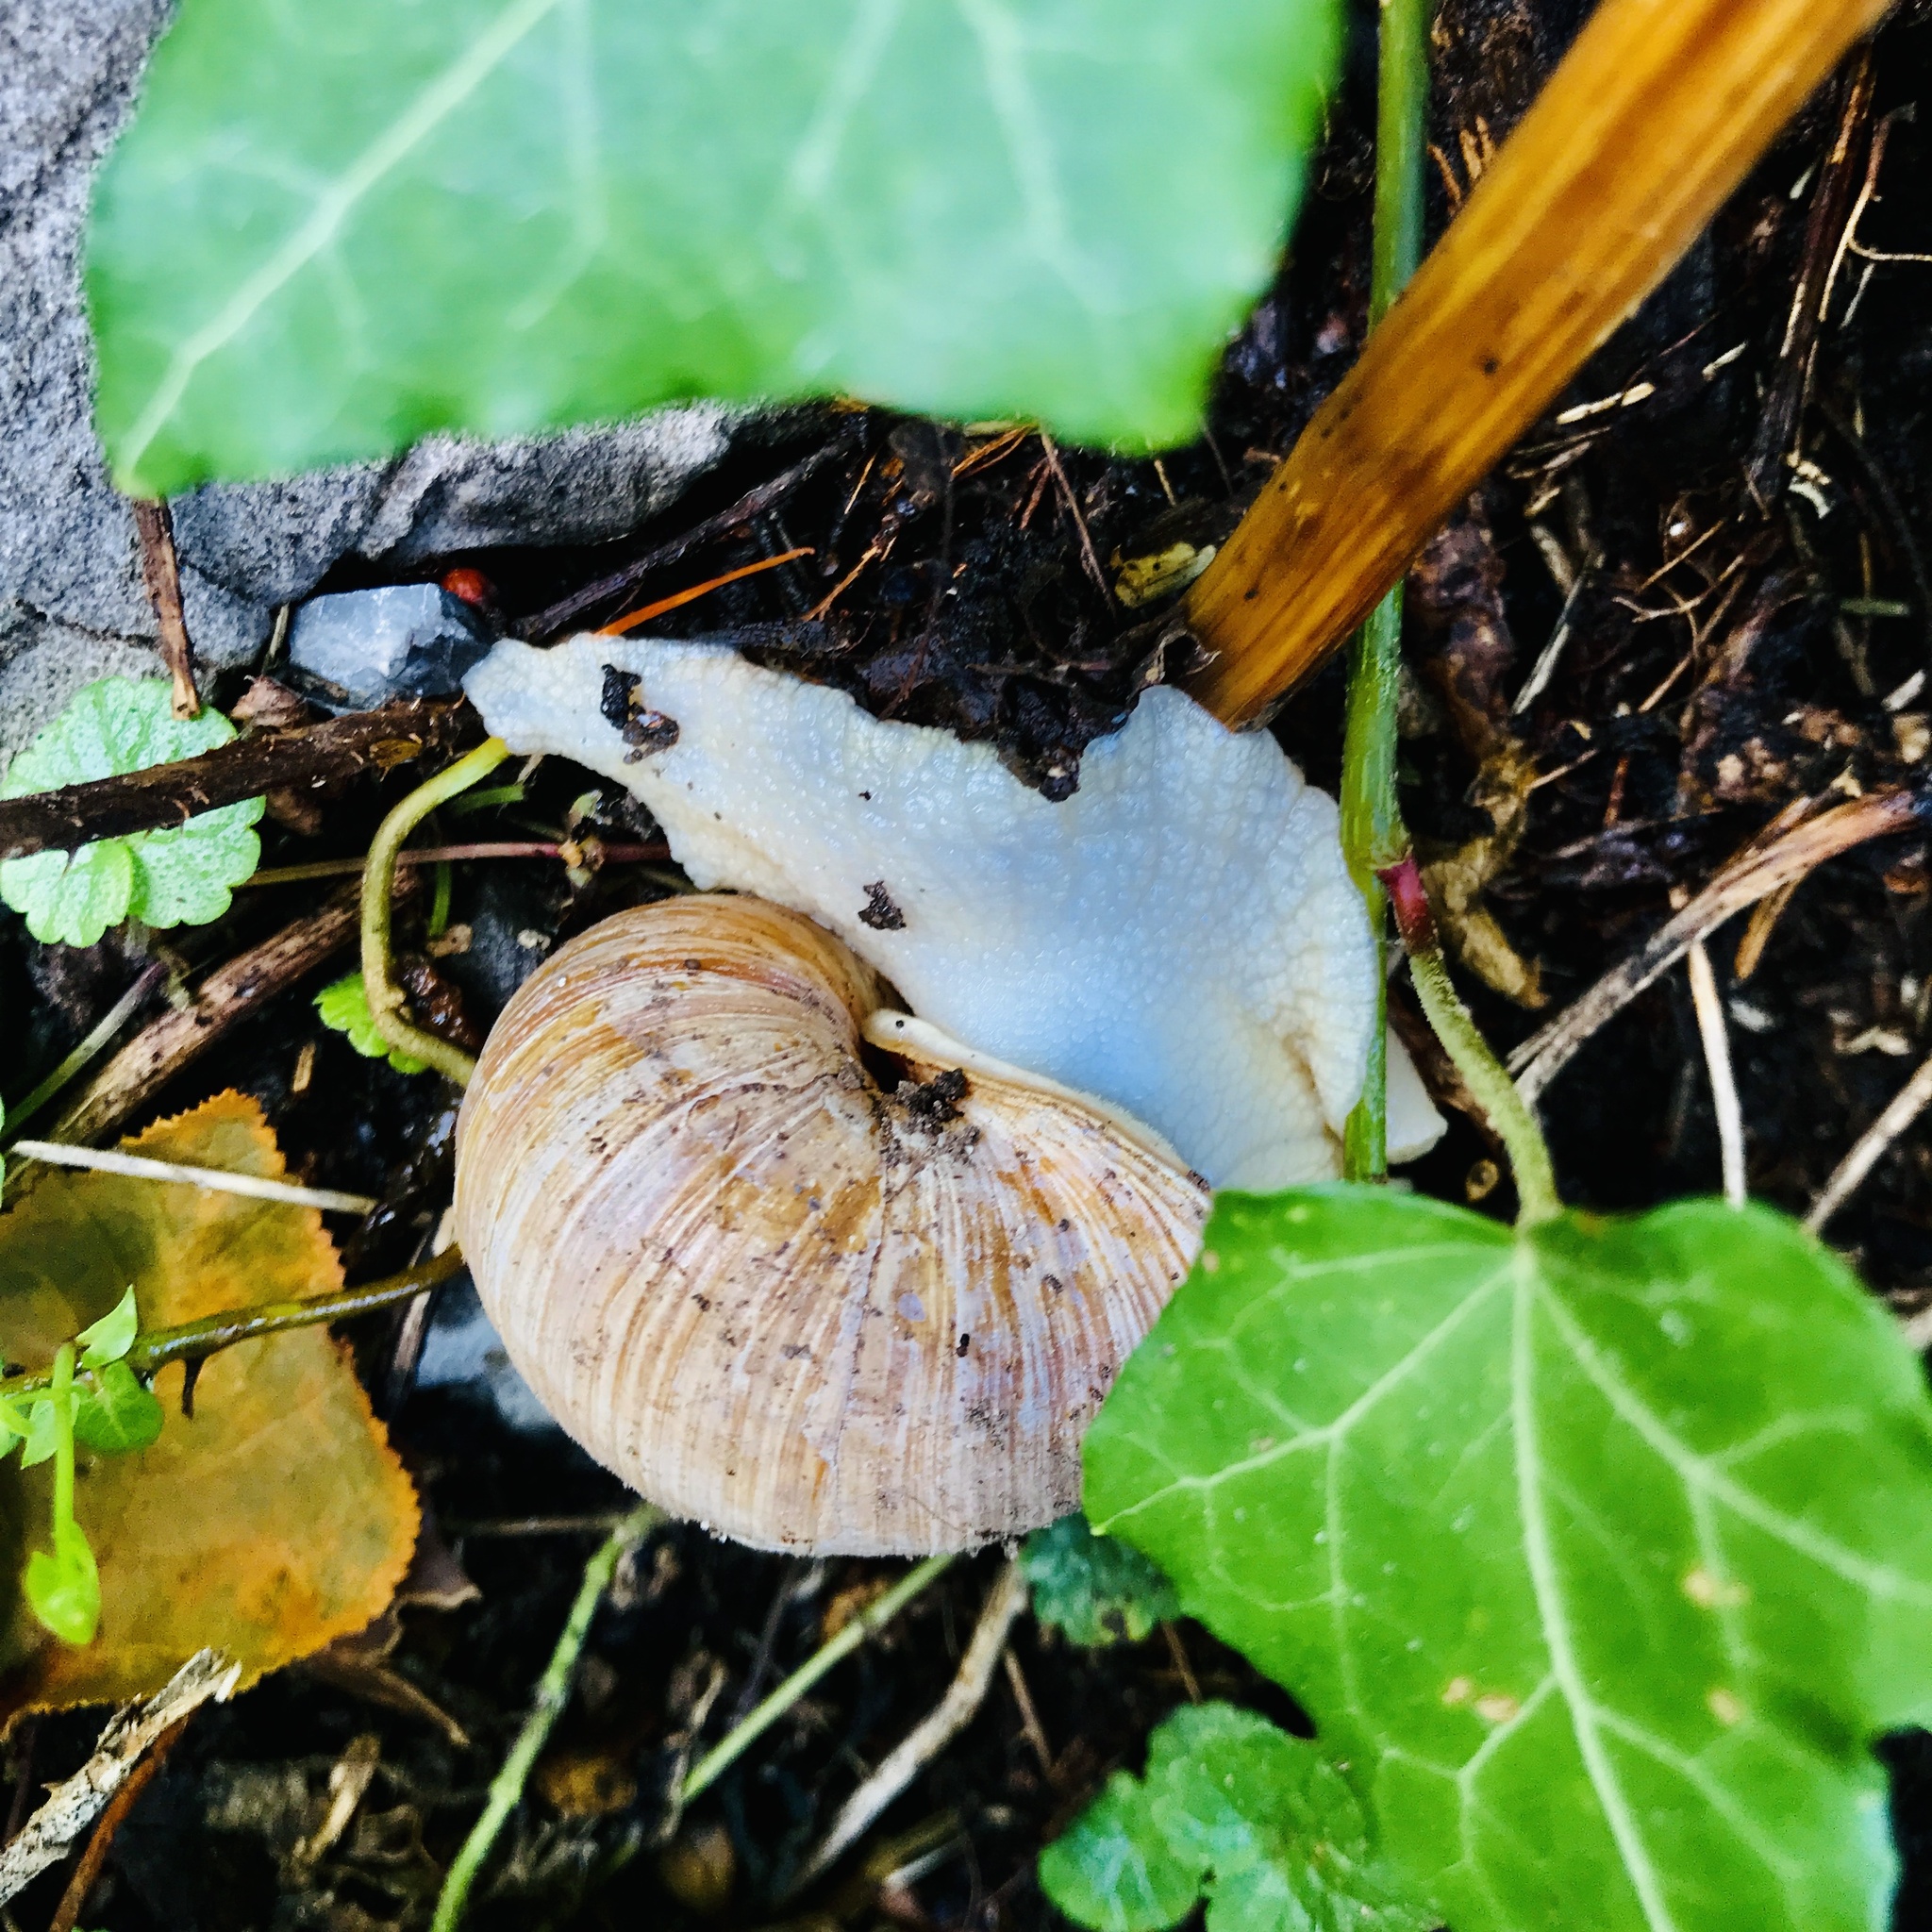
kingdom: Animalia
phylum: Mollusca
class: Gastropoda
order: Stylommatophora
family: Helicidae
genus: Helix
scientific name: Helix pomatia
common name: Roman snail
